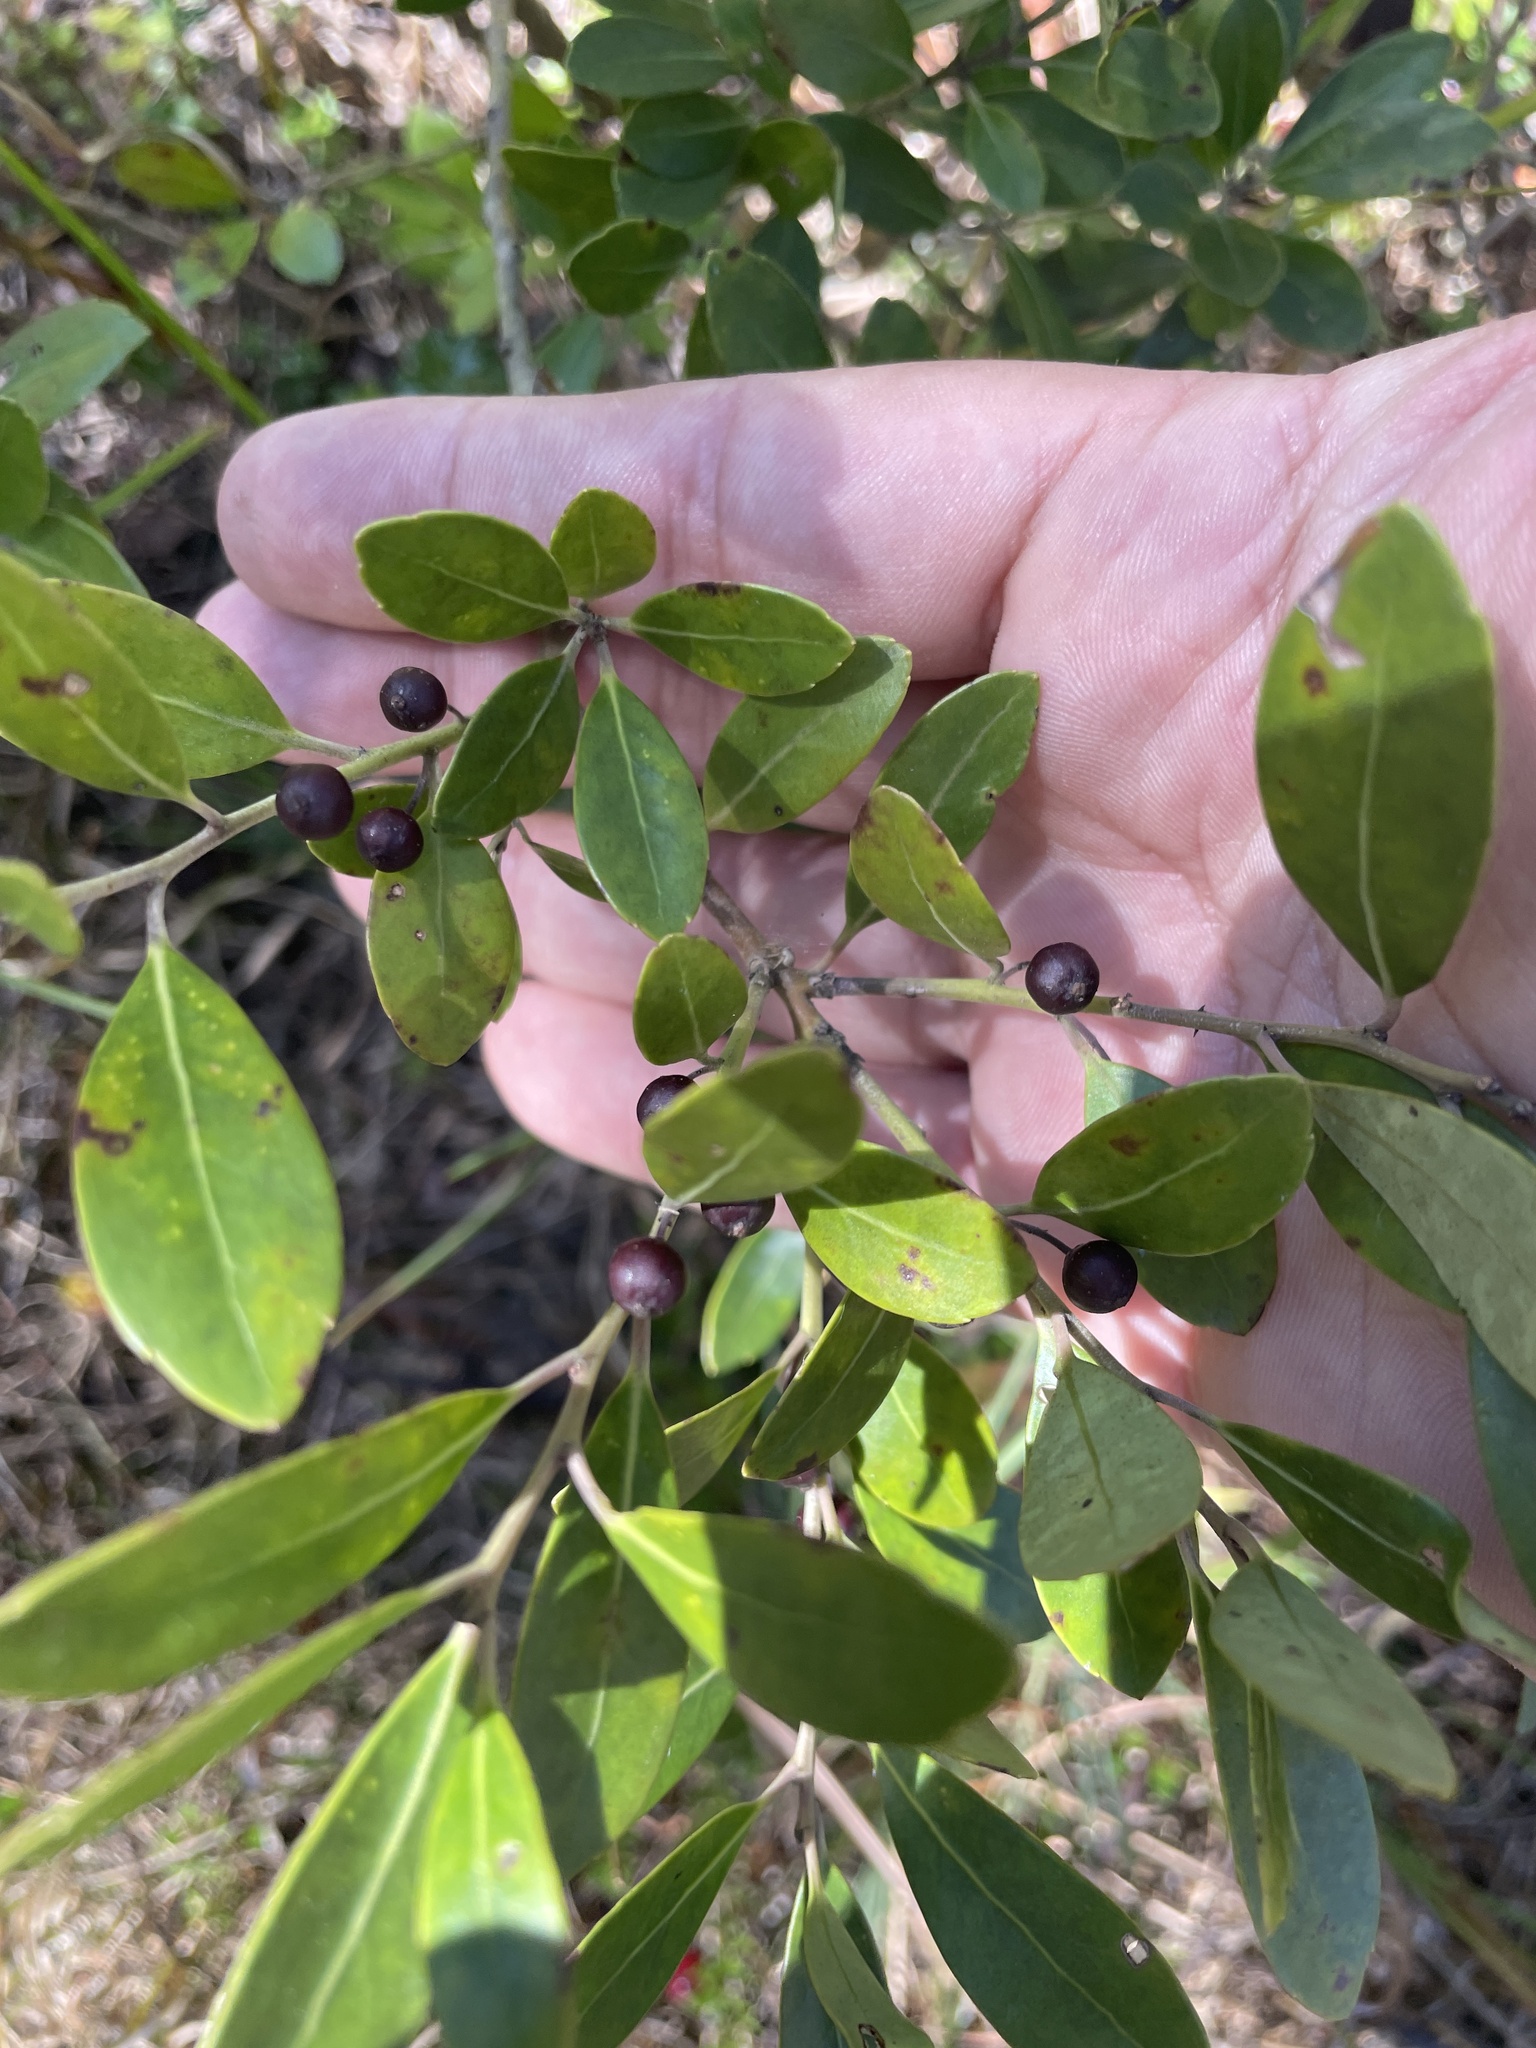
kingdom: Plantae
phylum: Tracheophyta
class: Magnoliopsida
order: Aquifoliales
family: Aquifoliaceae
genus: Ilex
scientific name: Ilex glabra
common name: Bitter gallberry
